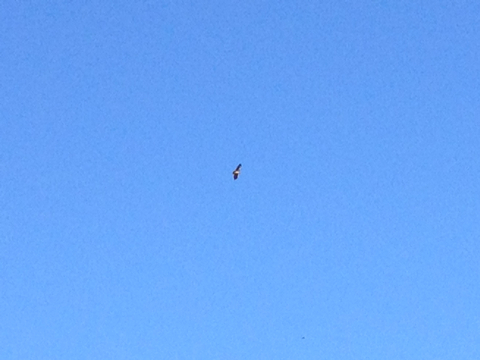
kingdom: Animalia
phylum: Chordata
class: Aves
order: Accipitriformes
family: Accipitridae
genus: Buteo
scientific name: Buteo jamaicensis
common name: Red-tailed hawk
